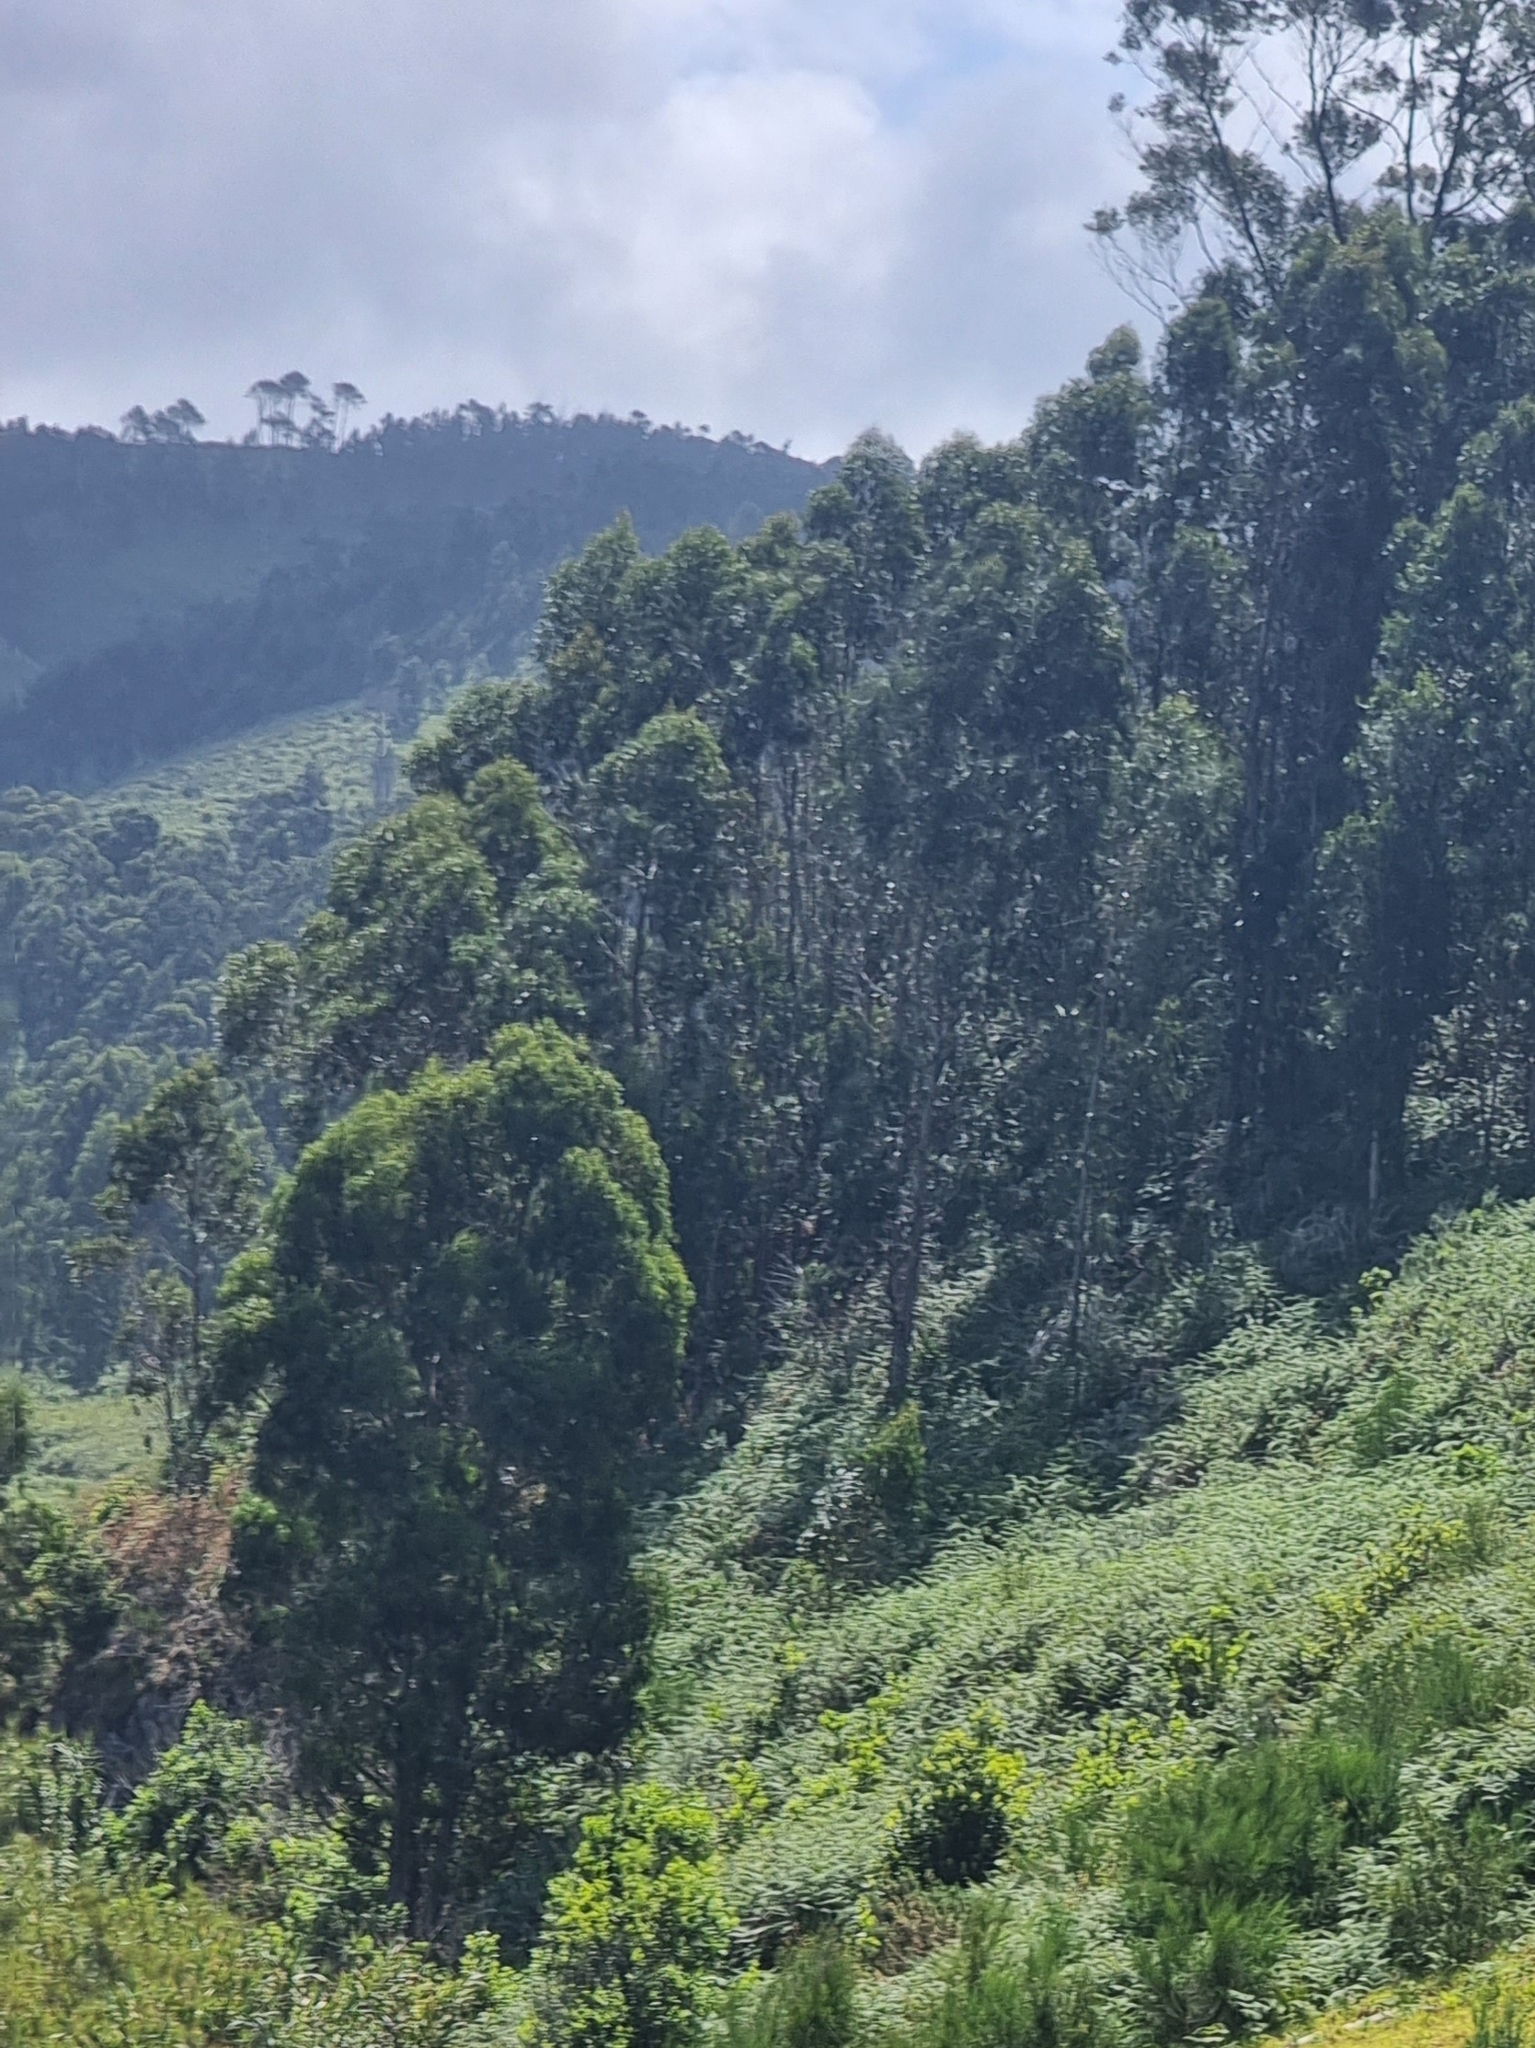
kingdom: Plantae
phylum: Tracheophyta
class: Magnoliopsida
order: Myrtales
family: Myrtaceae
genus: Eucalyptus
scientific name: Eucalyptus globulus
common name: Southern blue-gum
